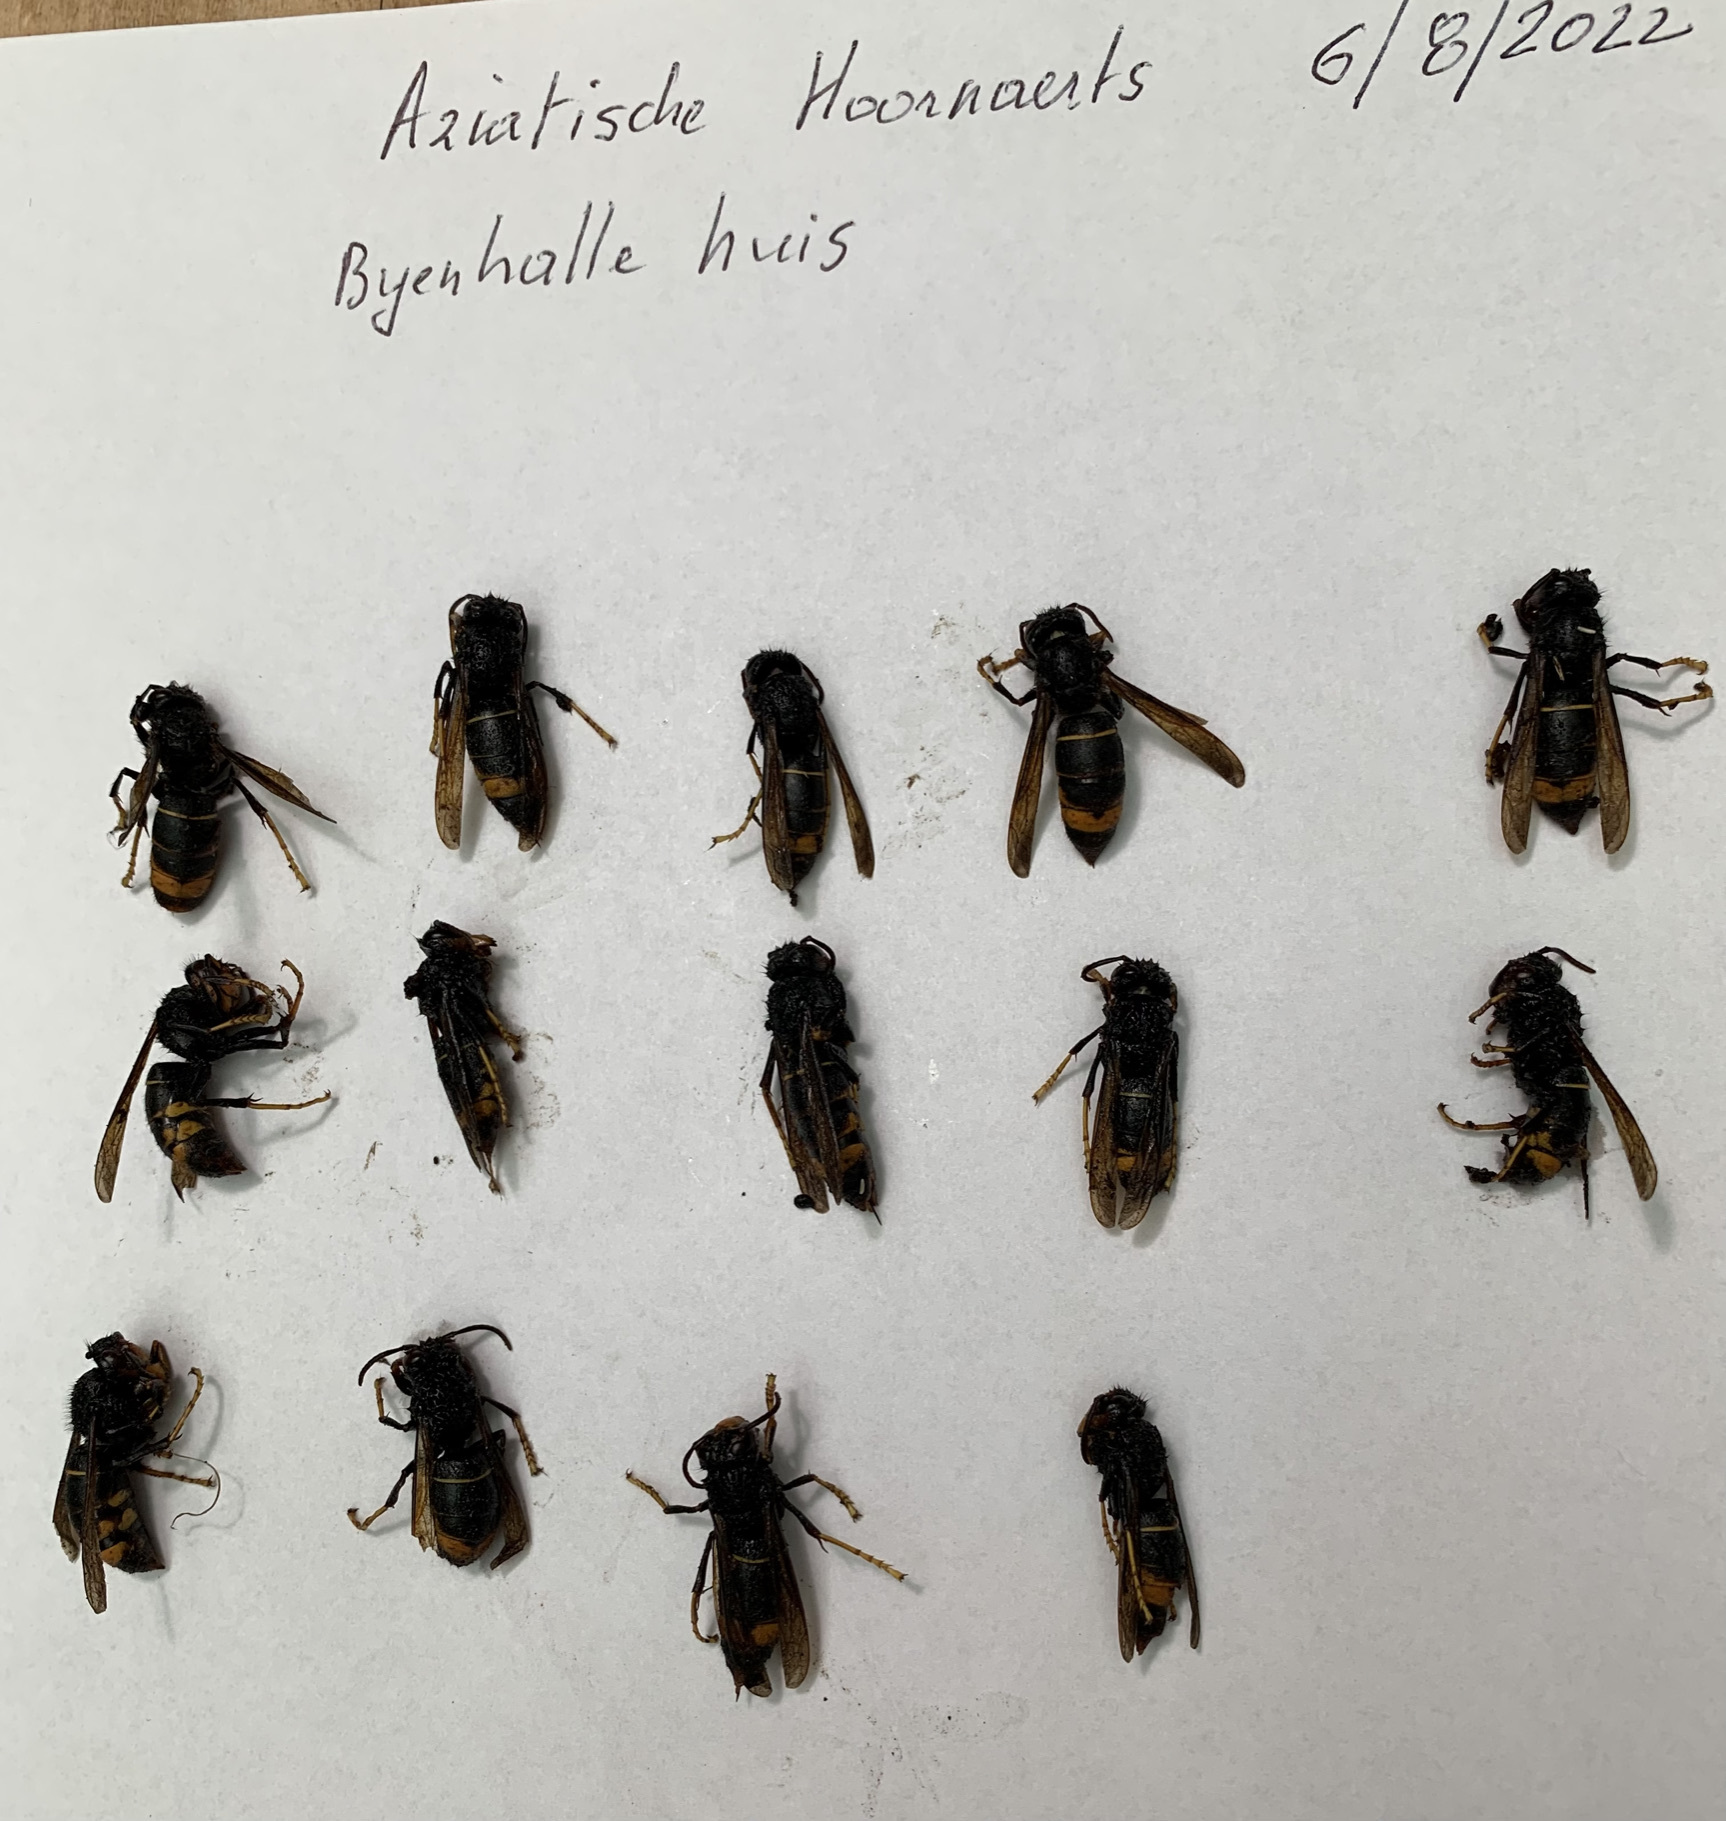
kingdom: Animalia
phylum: Arthropoda
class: Insecta
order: Hymenoptera
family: Vespidae
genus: Vespa
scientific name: Vespa velutina
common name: Asian hornet
